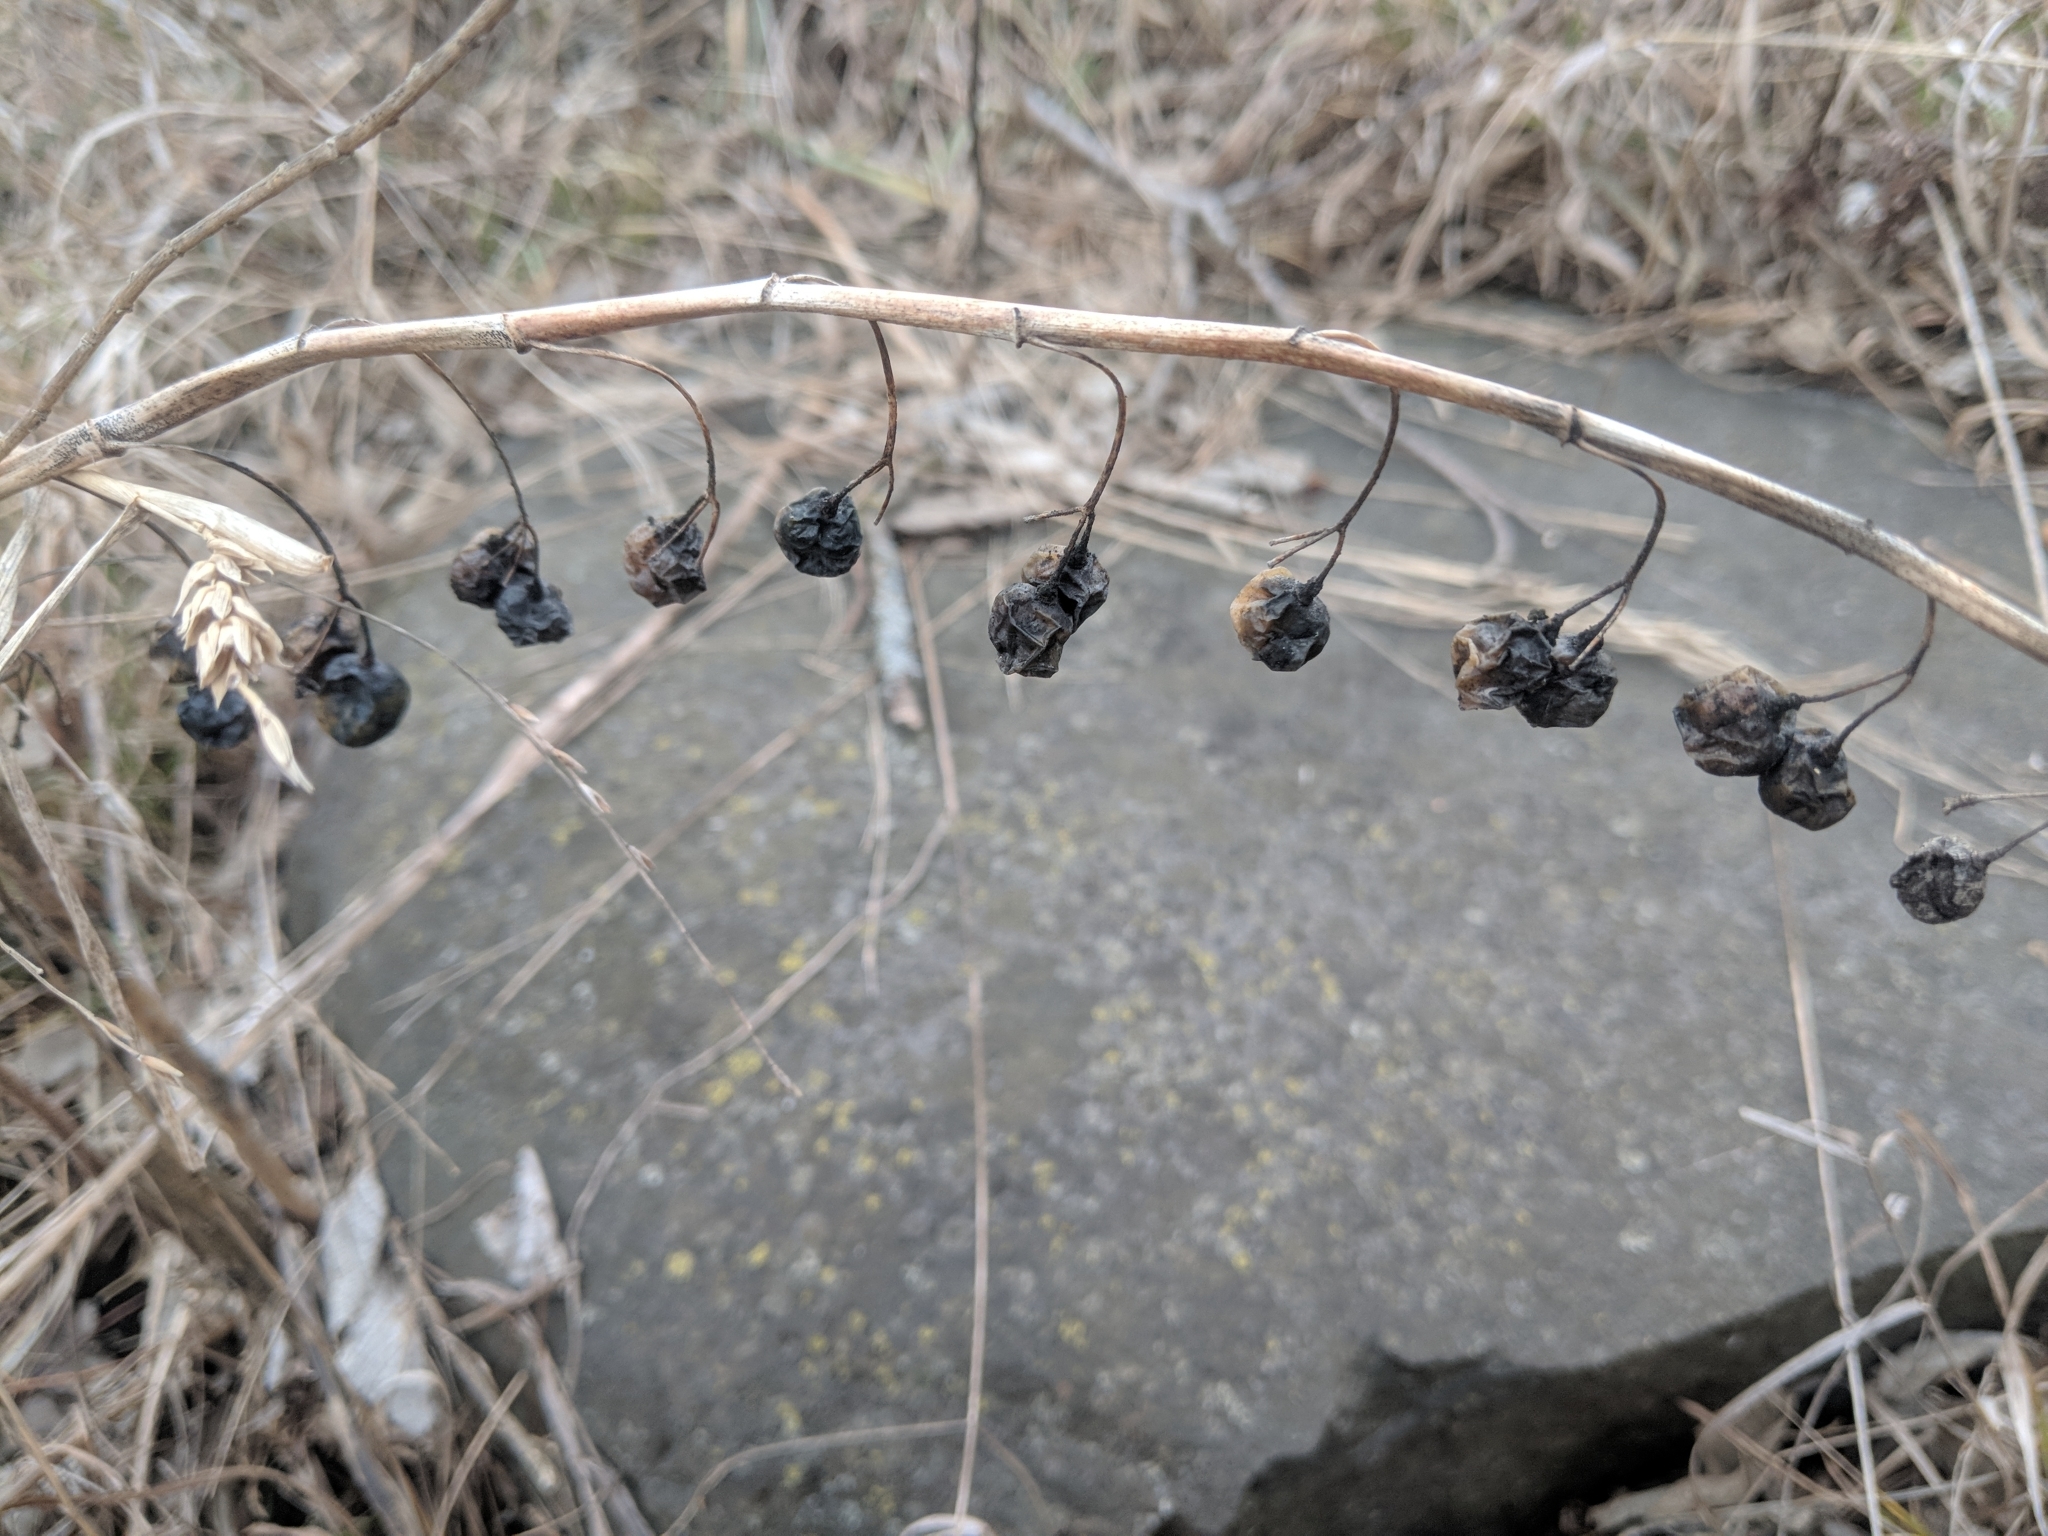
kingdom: Plantae
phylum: Tracheophyta
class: Liliopsida
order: Asparagales
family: Asparagaceae
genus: Polygonatum
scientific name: Polygonatum biflorum
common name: American solomon's-seal
